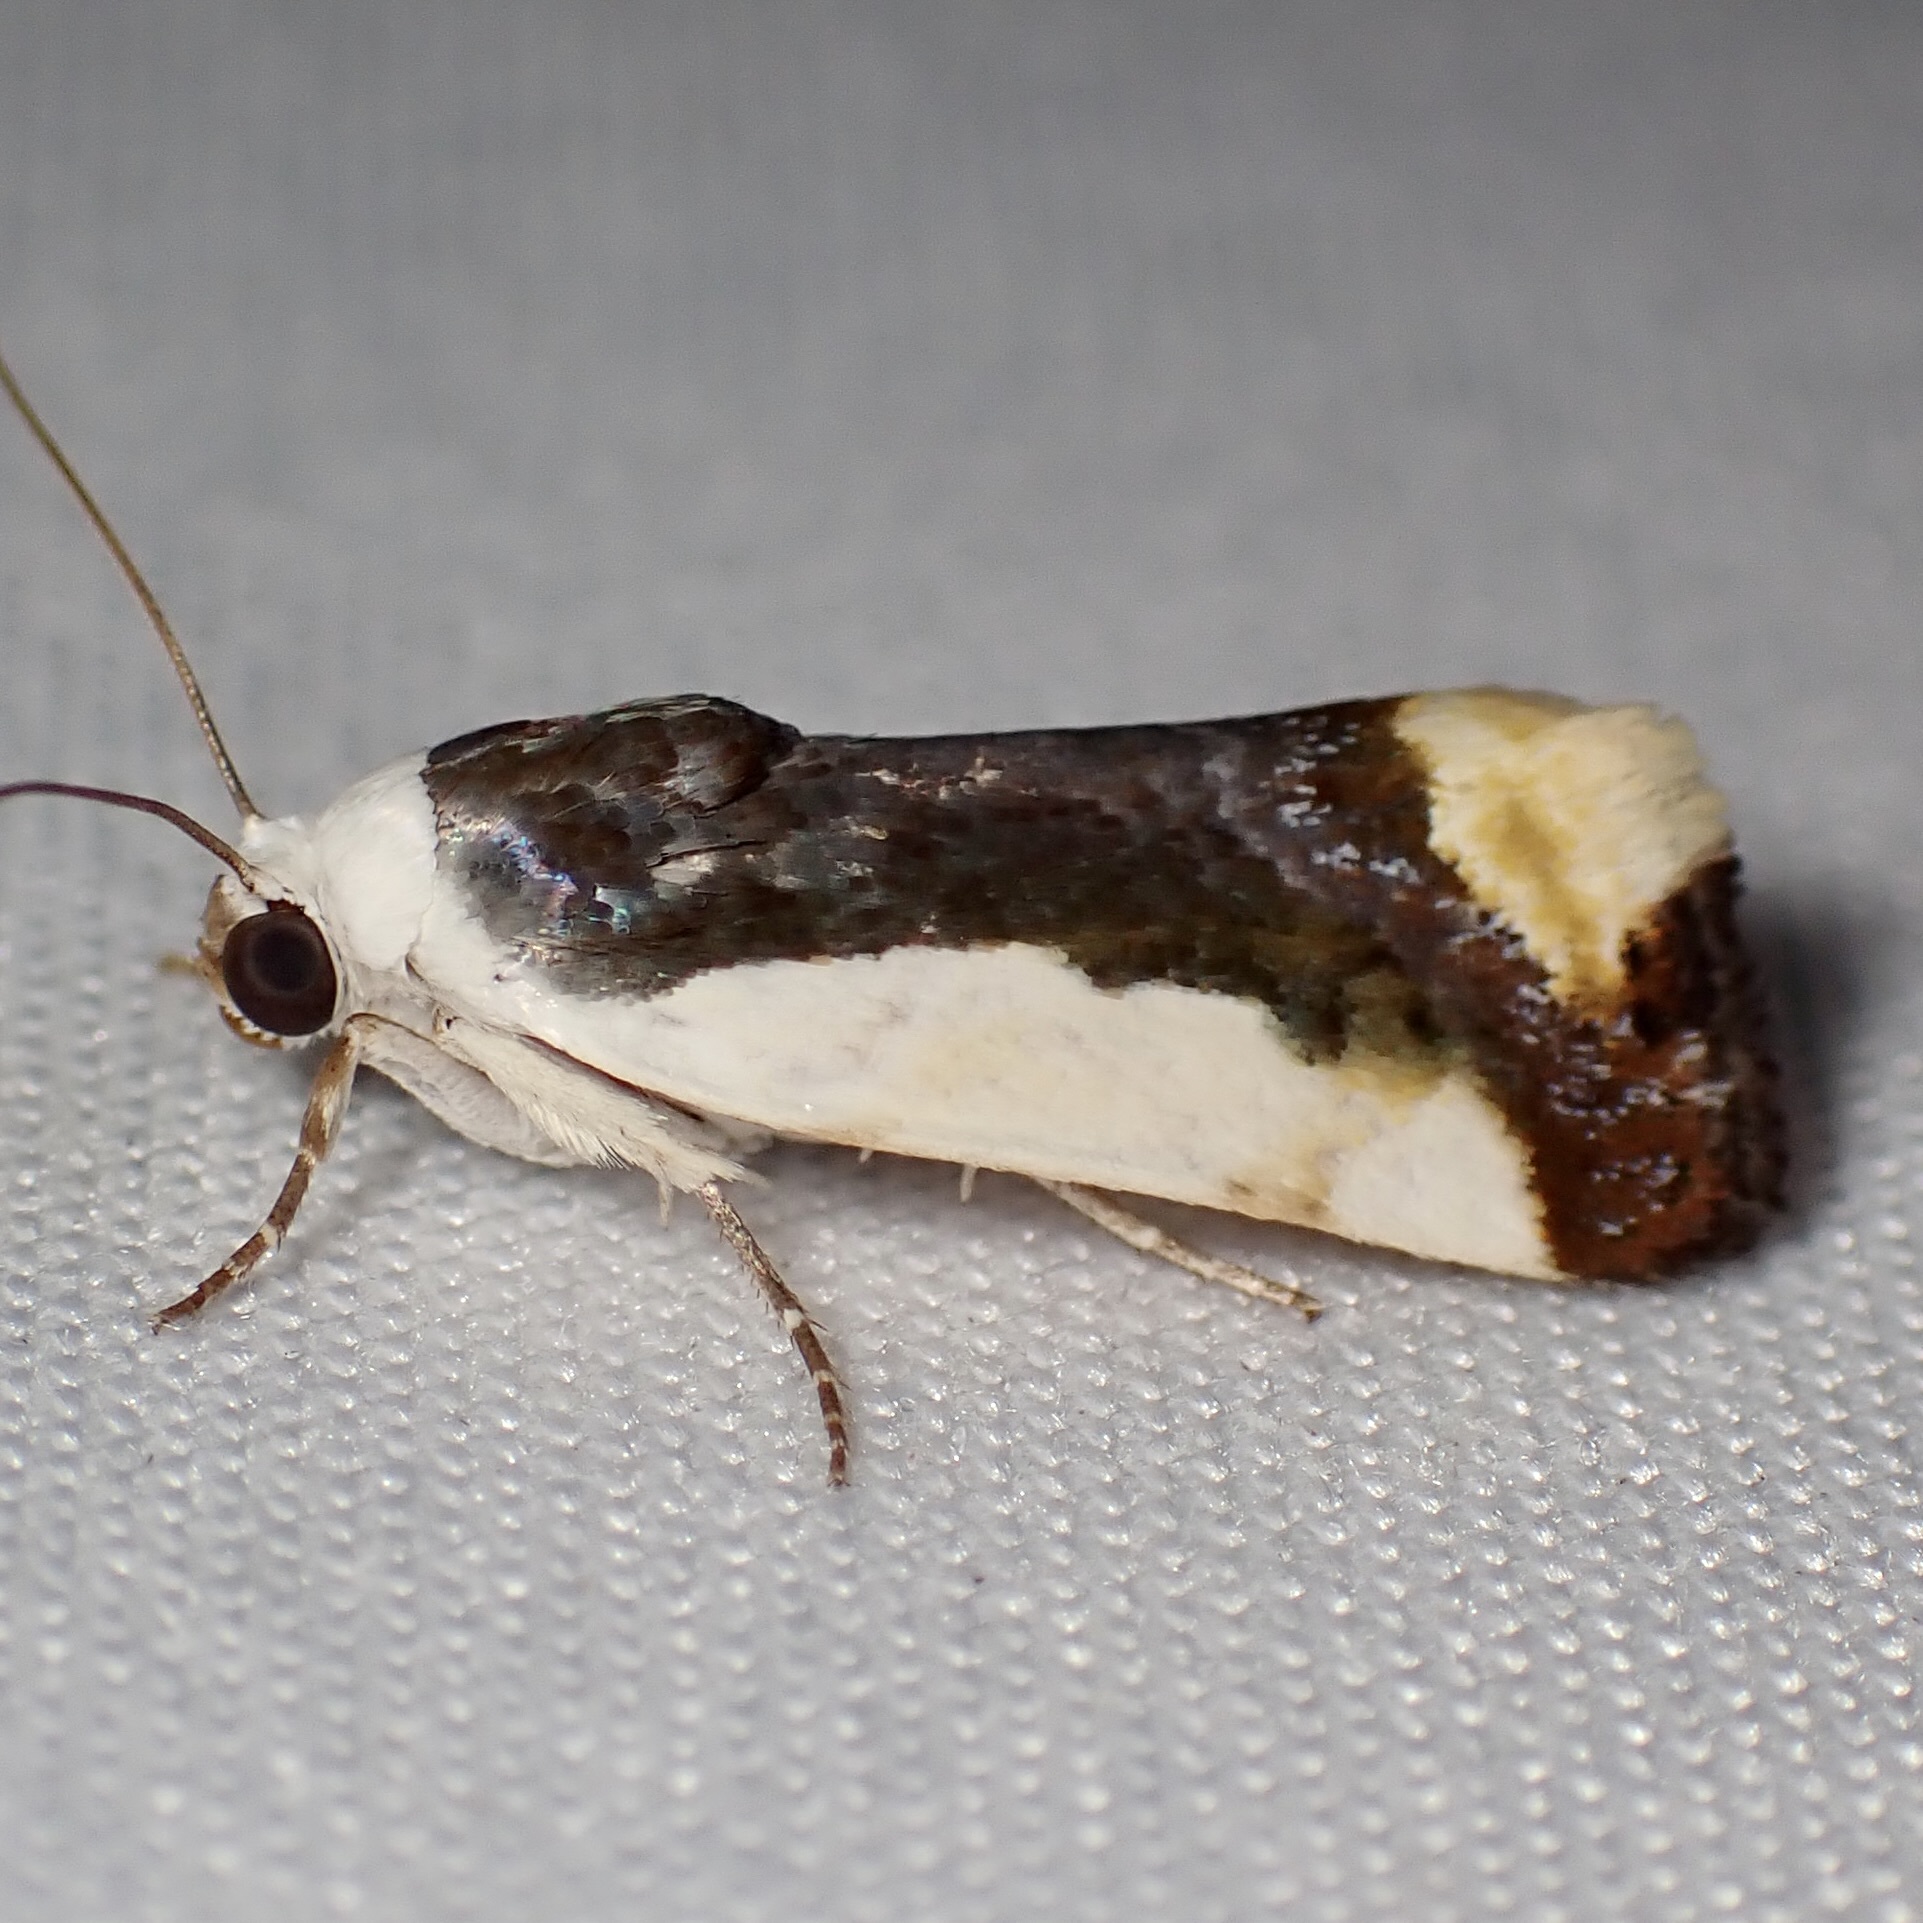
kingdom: Animalia
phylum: Arthropoda
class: Insecta
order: Lepidoptera
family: Noctuidae
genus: Acontia
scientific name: Acontia Tarache expolita
